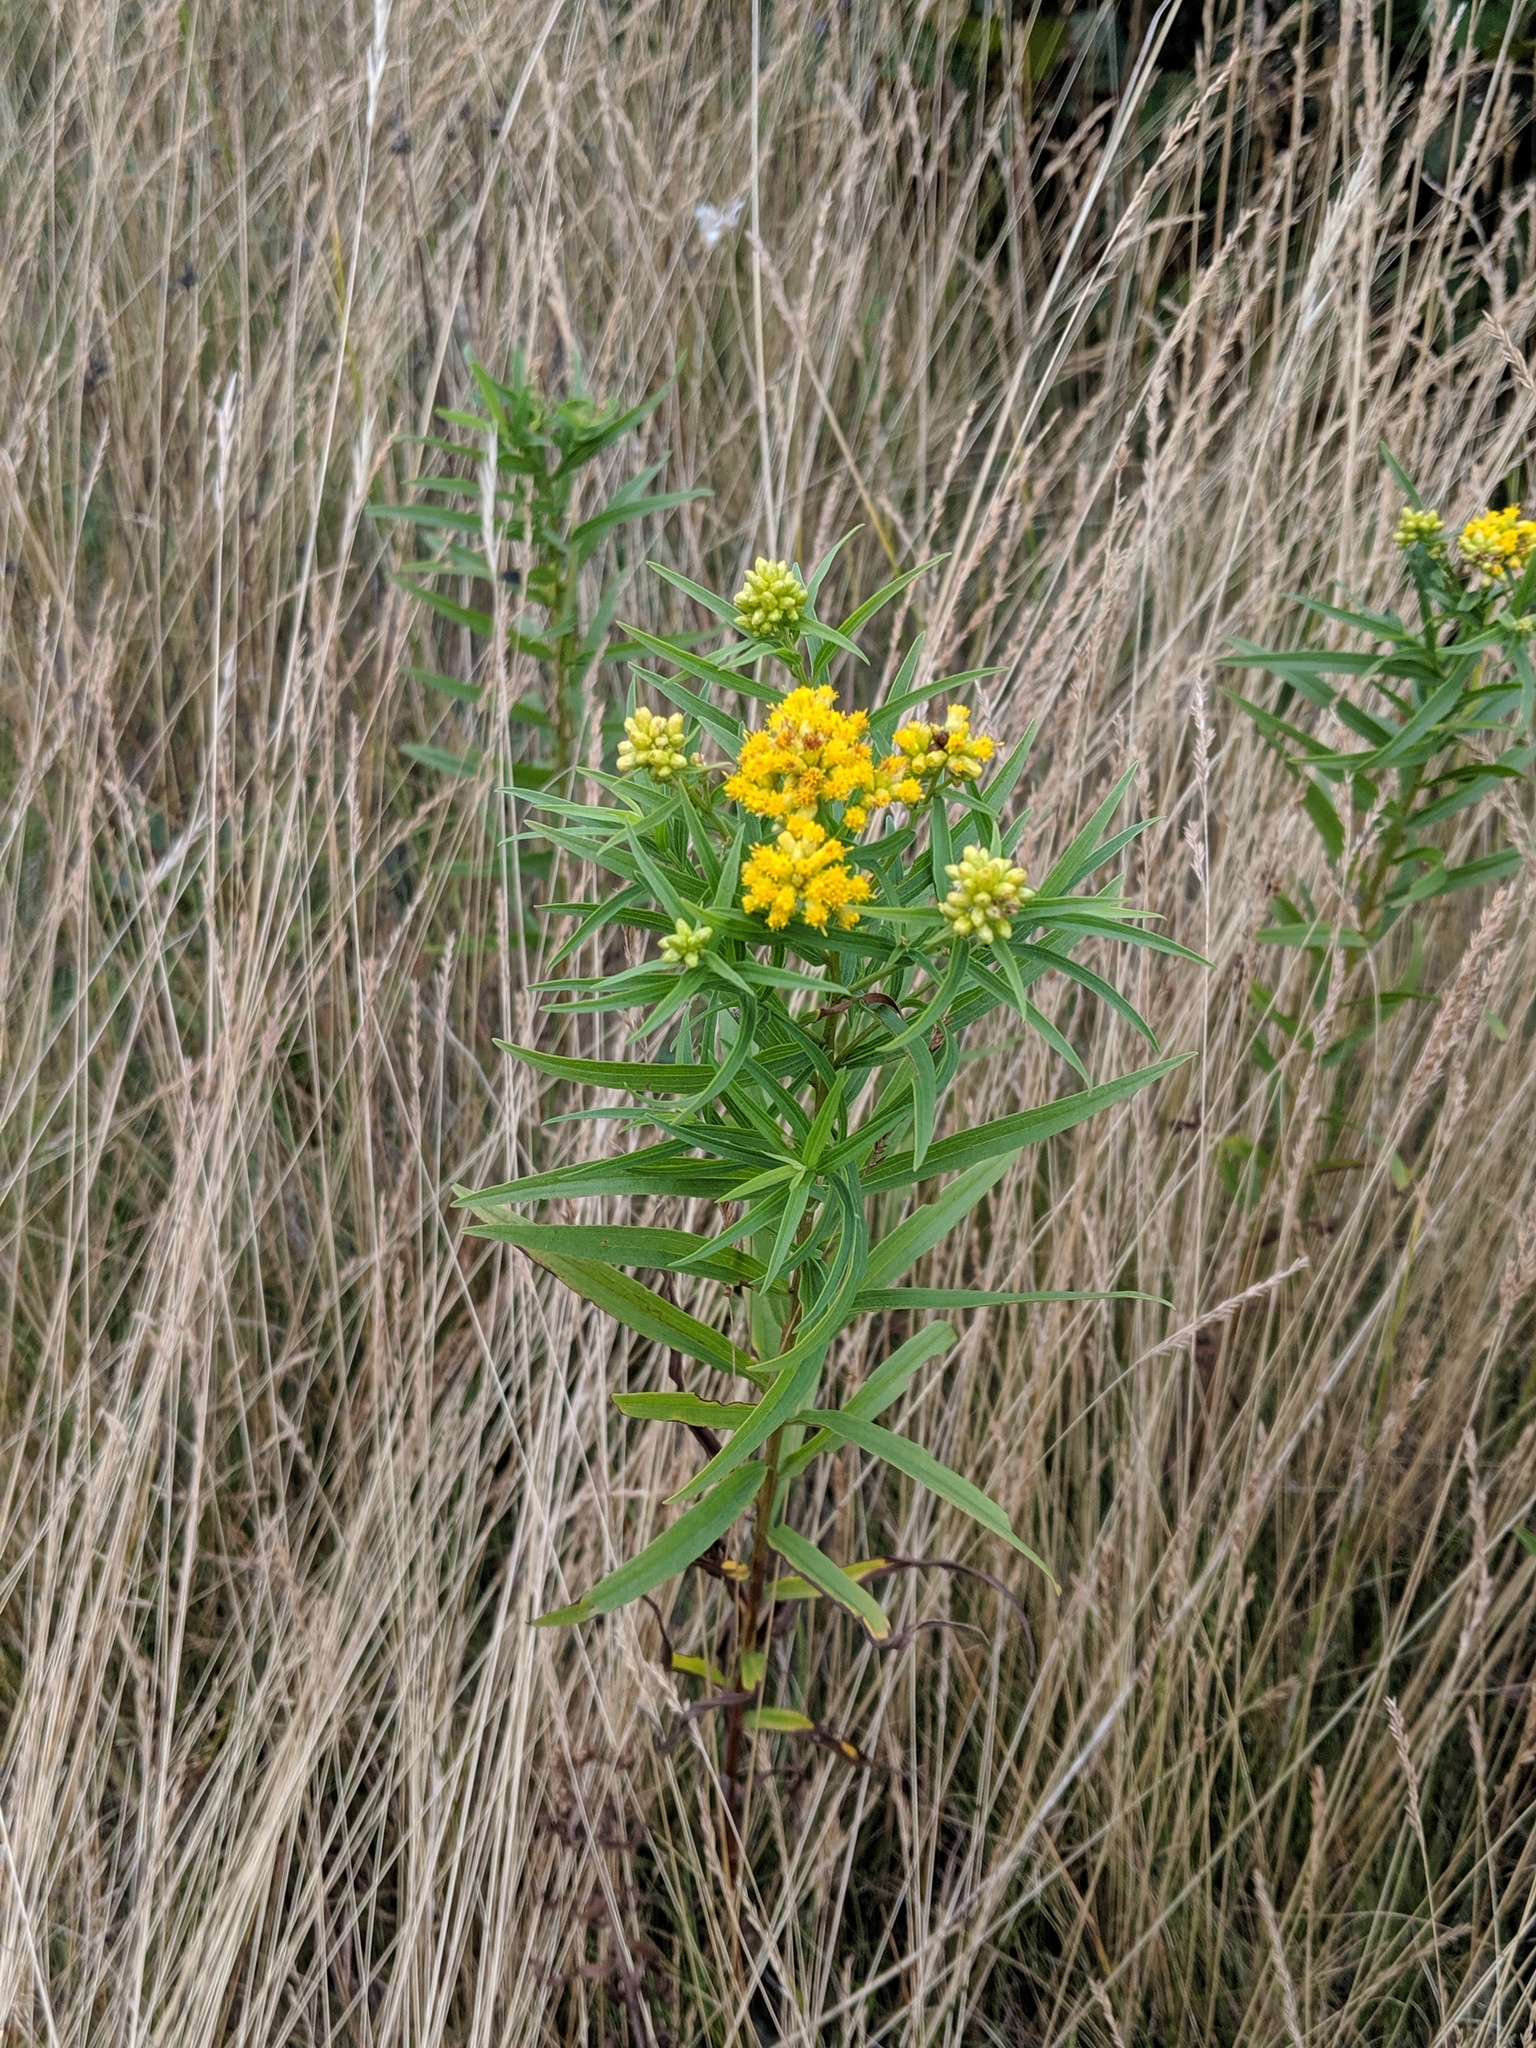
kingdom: Plantae
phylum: Tracheophyta
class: Magnoliopsida
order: Asterales
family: Asteraceae
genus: Euthamia
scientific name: Euthamia graminifolia
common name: Common goldentop
